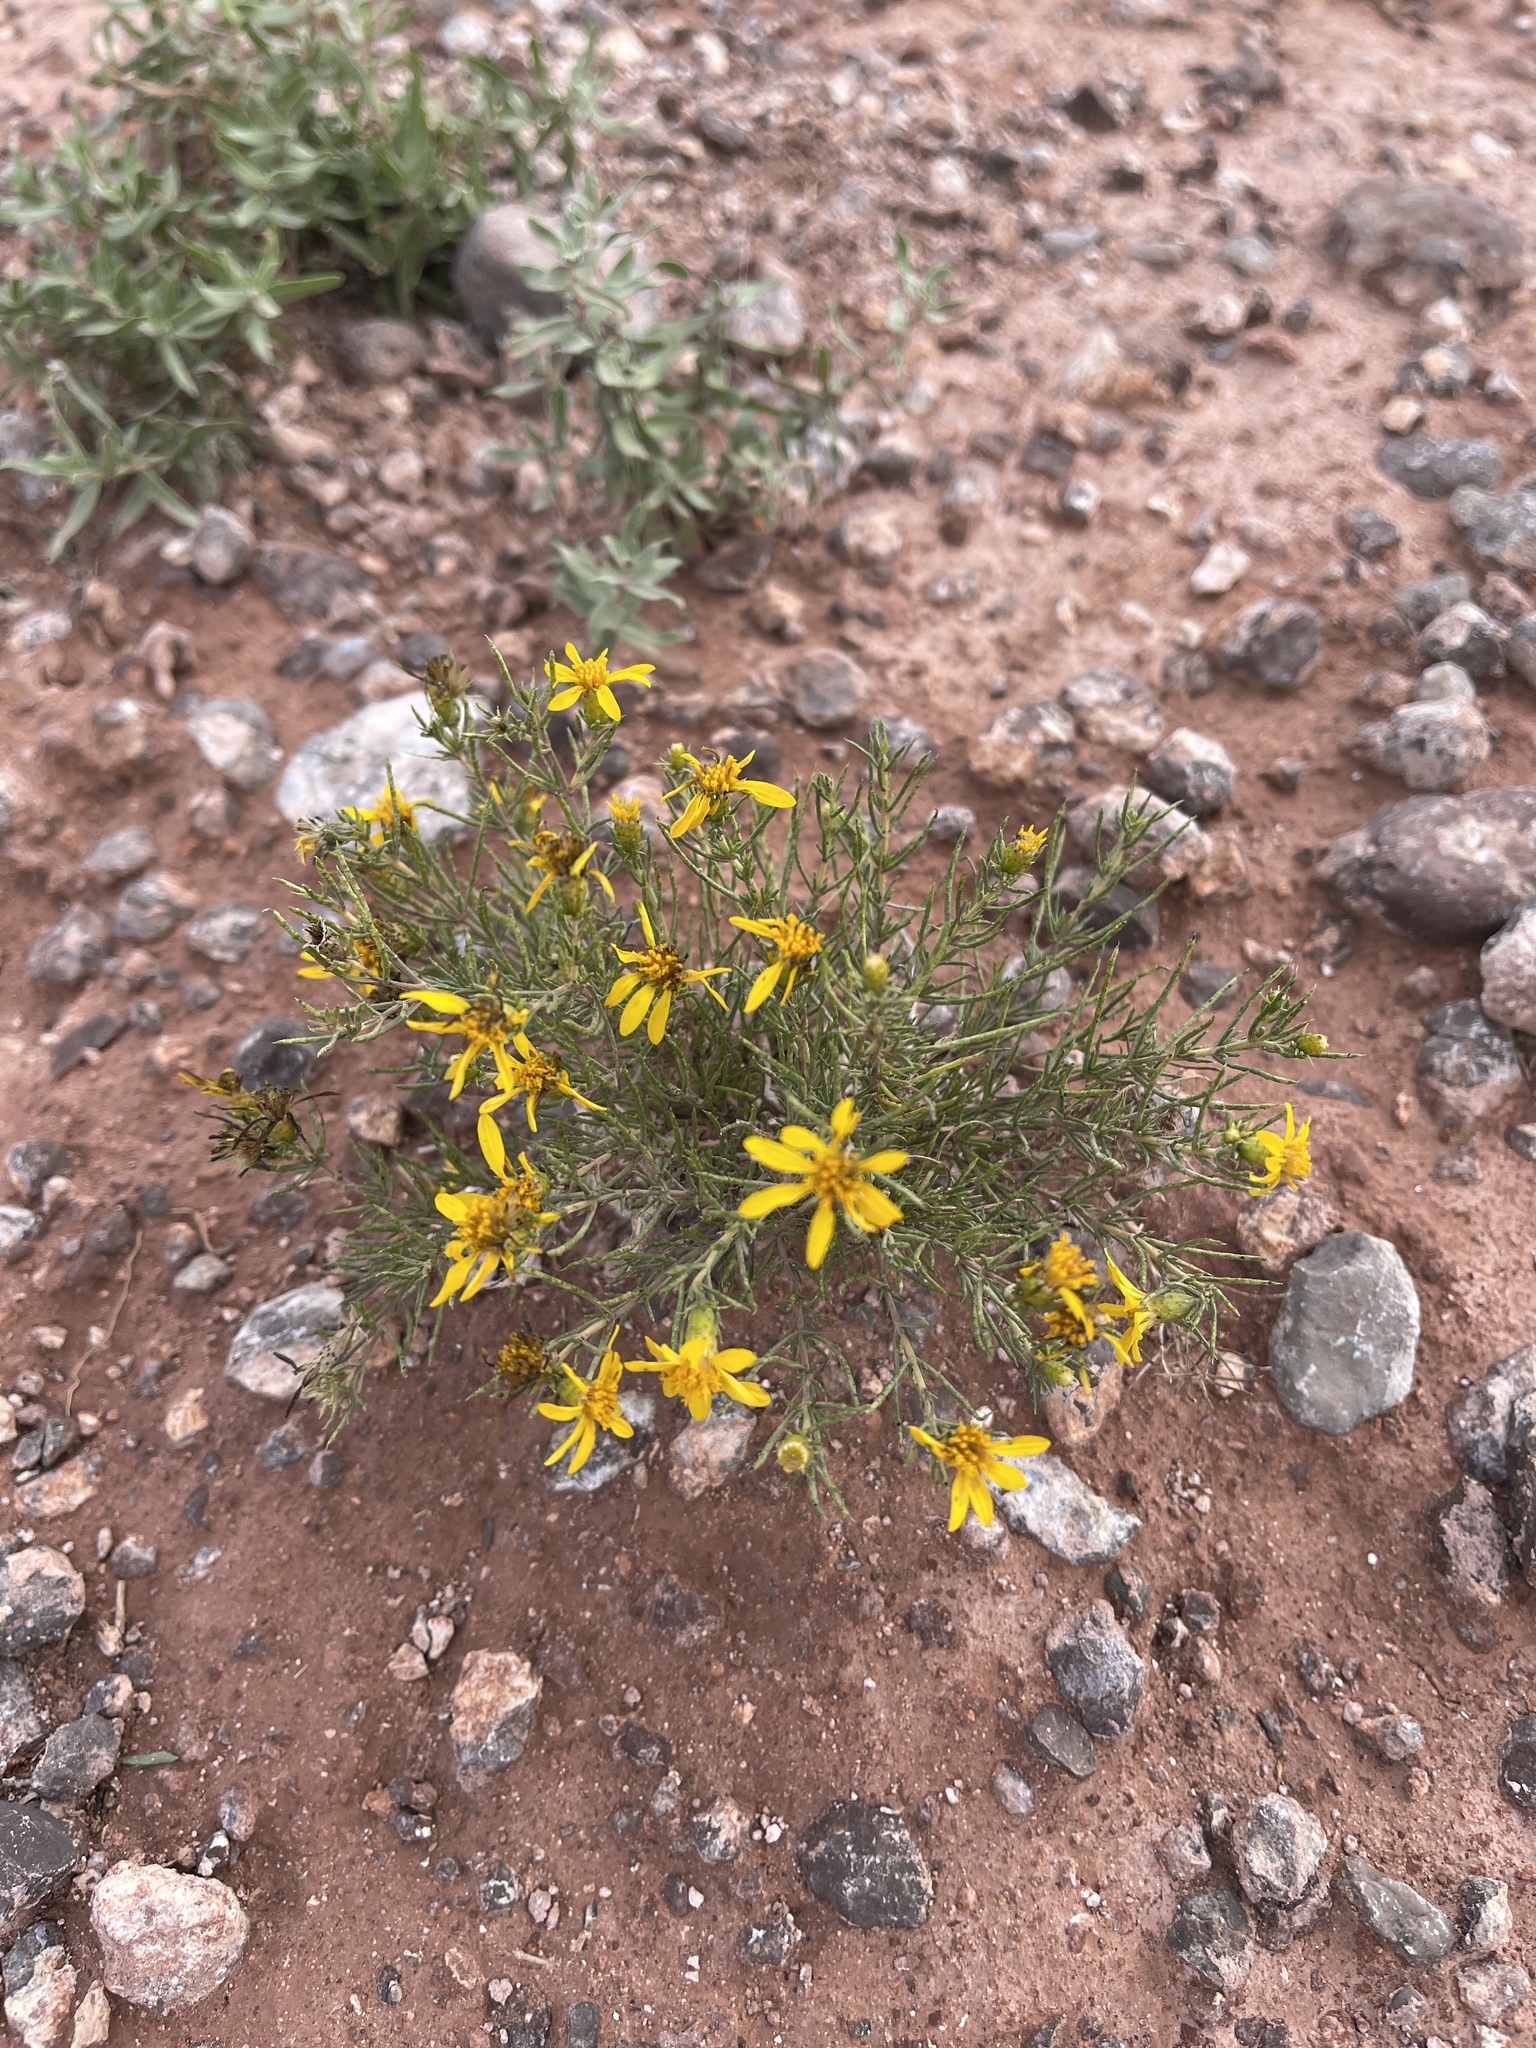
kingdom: Plantae
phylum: Tracheophyta
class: Magnoliopsida
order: Asterales
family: Asteraceae
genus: Thymophylla
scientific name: Thymophylla acerosa
